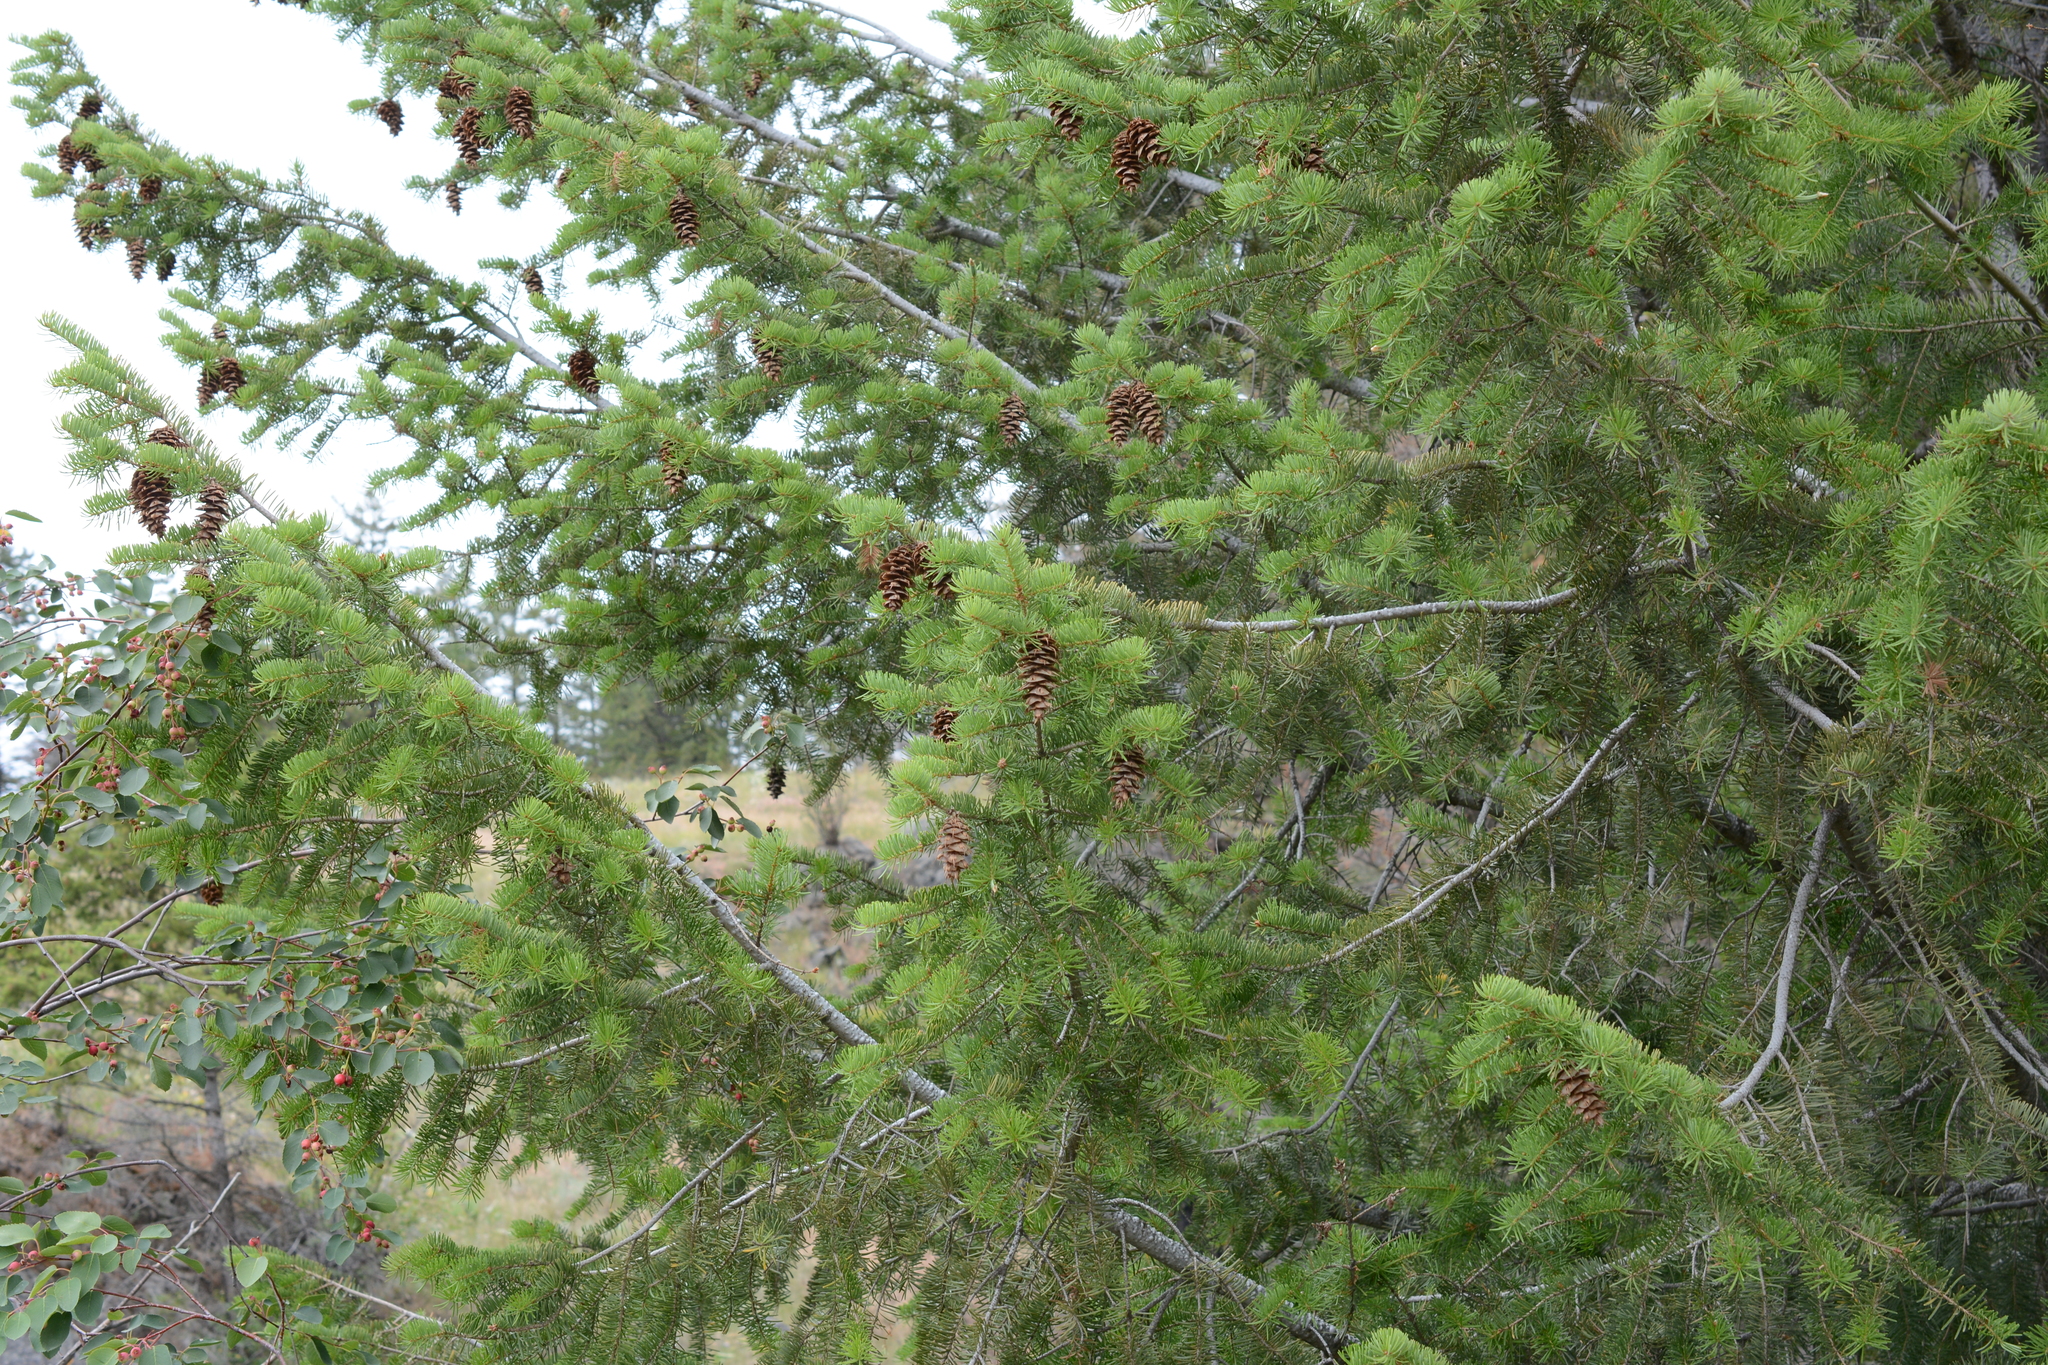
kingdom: Plantae
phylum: Tracheophyta
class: Pinopsida
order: Pinales
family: Pinaceae
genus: Pseudotsuga
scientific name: Pseudotsuga menziesii
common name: Douglas fir
